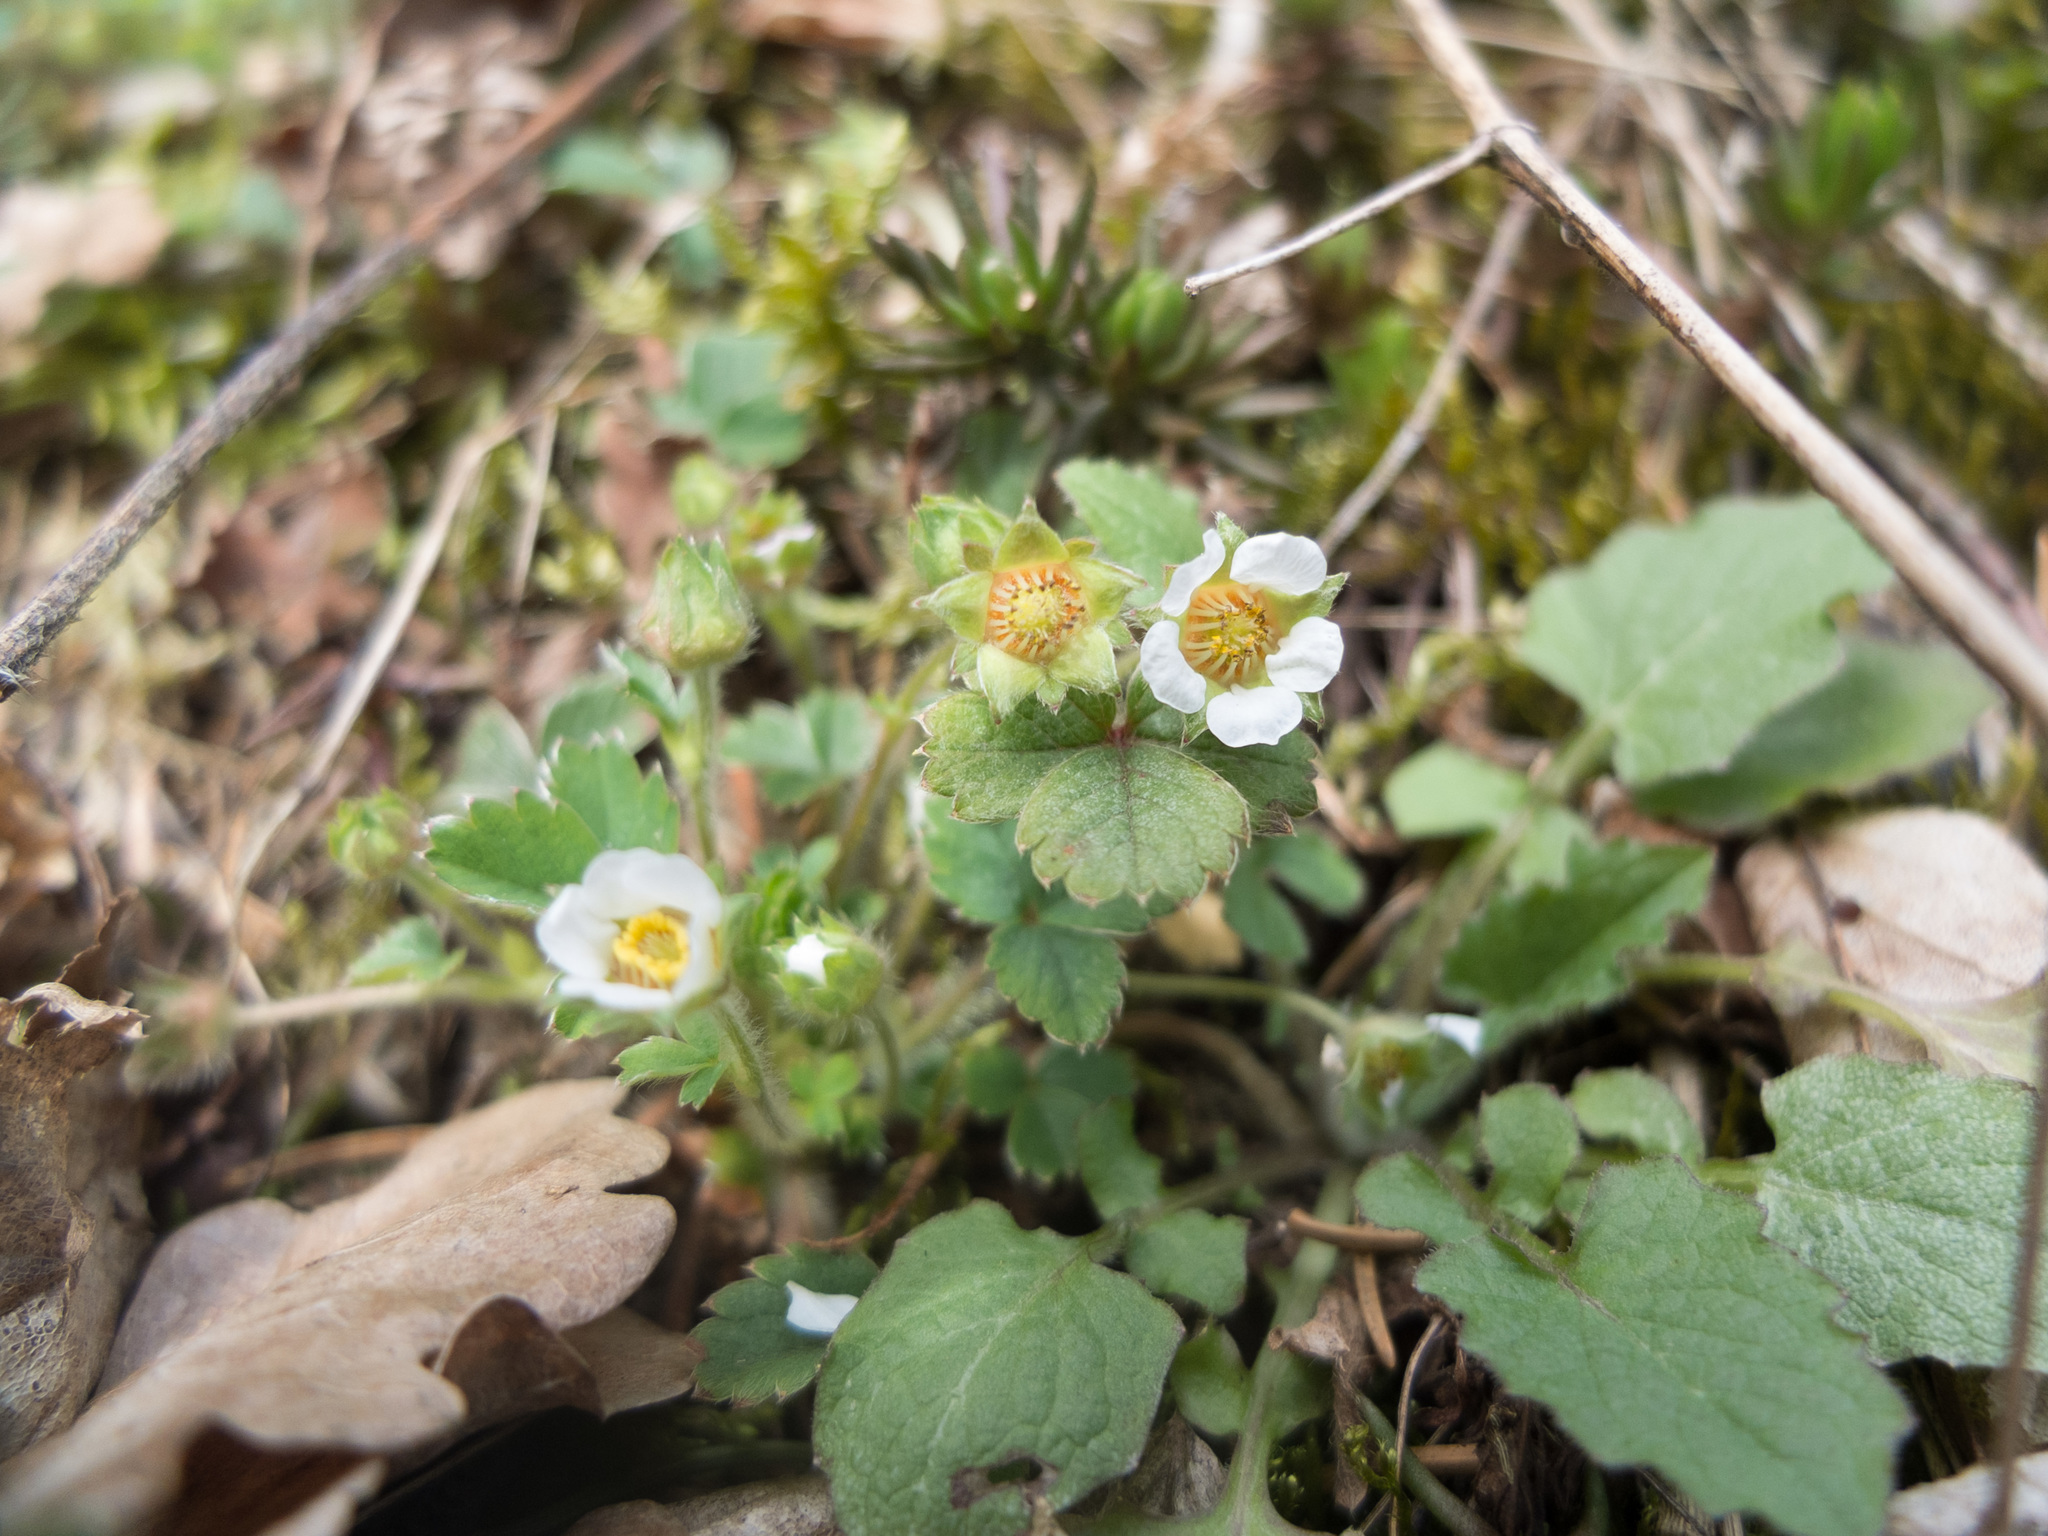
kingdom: Plantae
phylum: Tracheophyta
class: Magnoliopsida
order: Rosales
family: Rosaceae
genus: Potentilla
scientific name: Potentilla sterilis
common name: Barren strawberry
